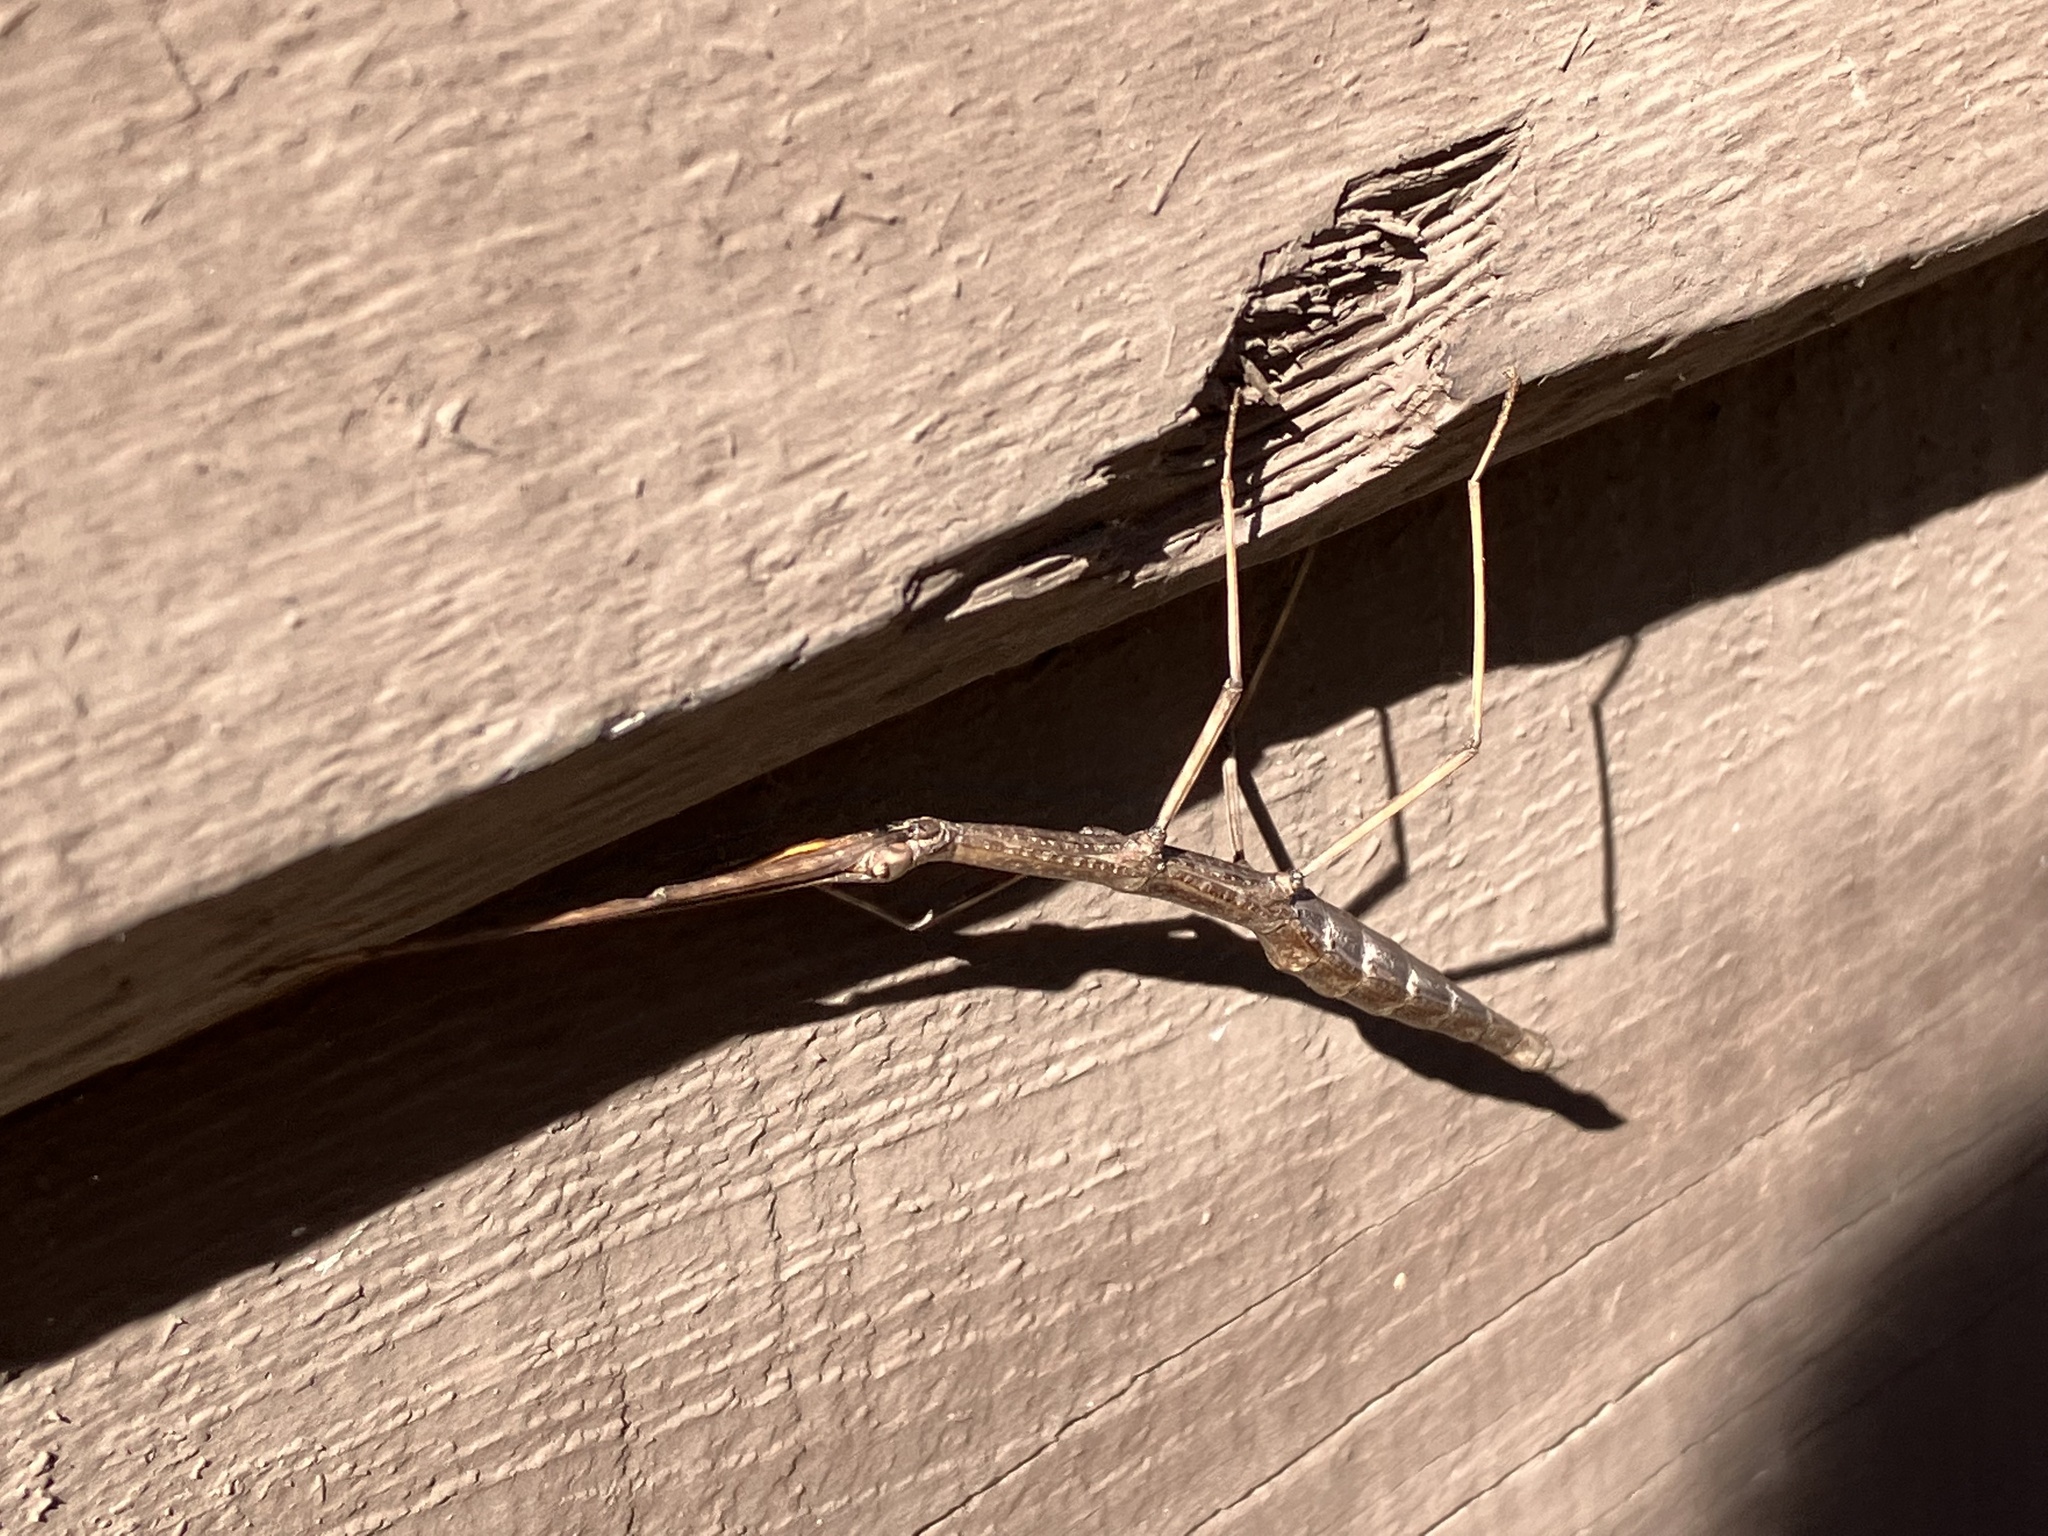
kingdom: Animalia
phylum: Arthropoda
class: Insecta
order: Phasmida
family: Diapheromeridae
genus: Diapheromera
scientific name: Diapheromera femorata
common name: Common american walkingstick
